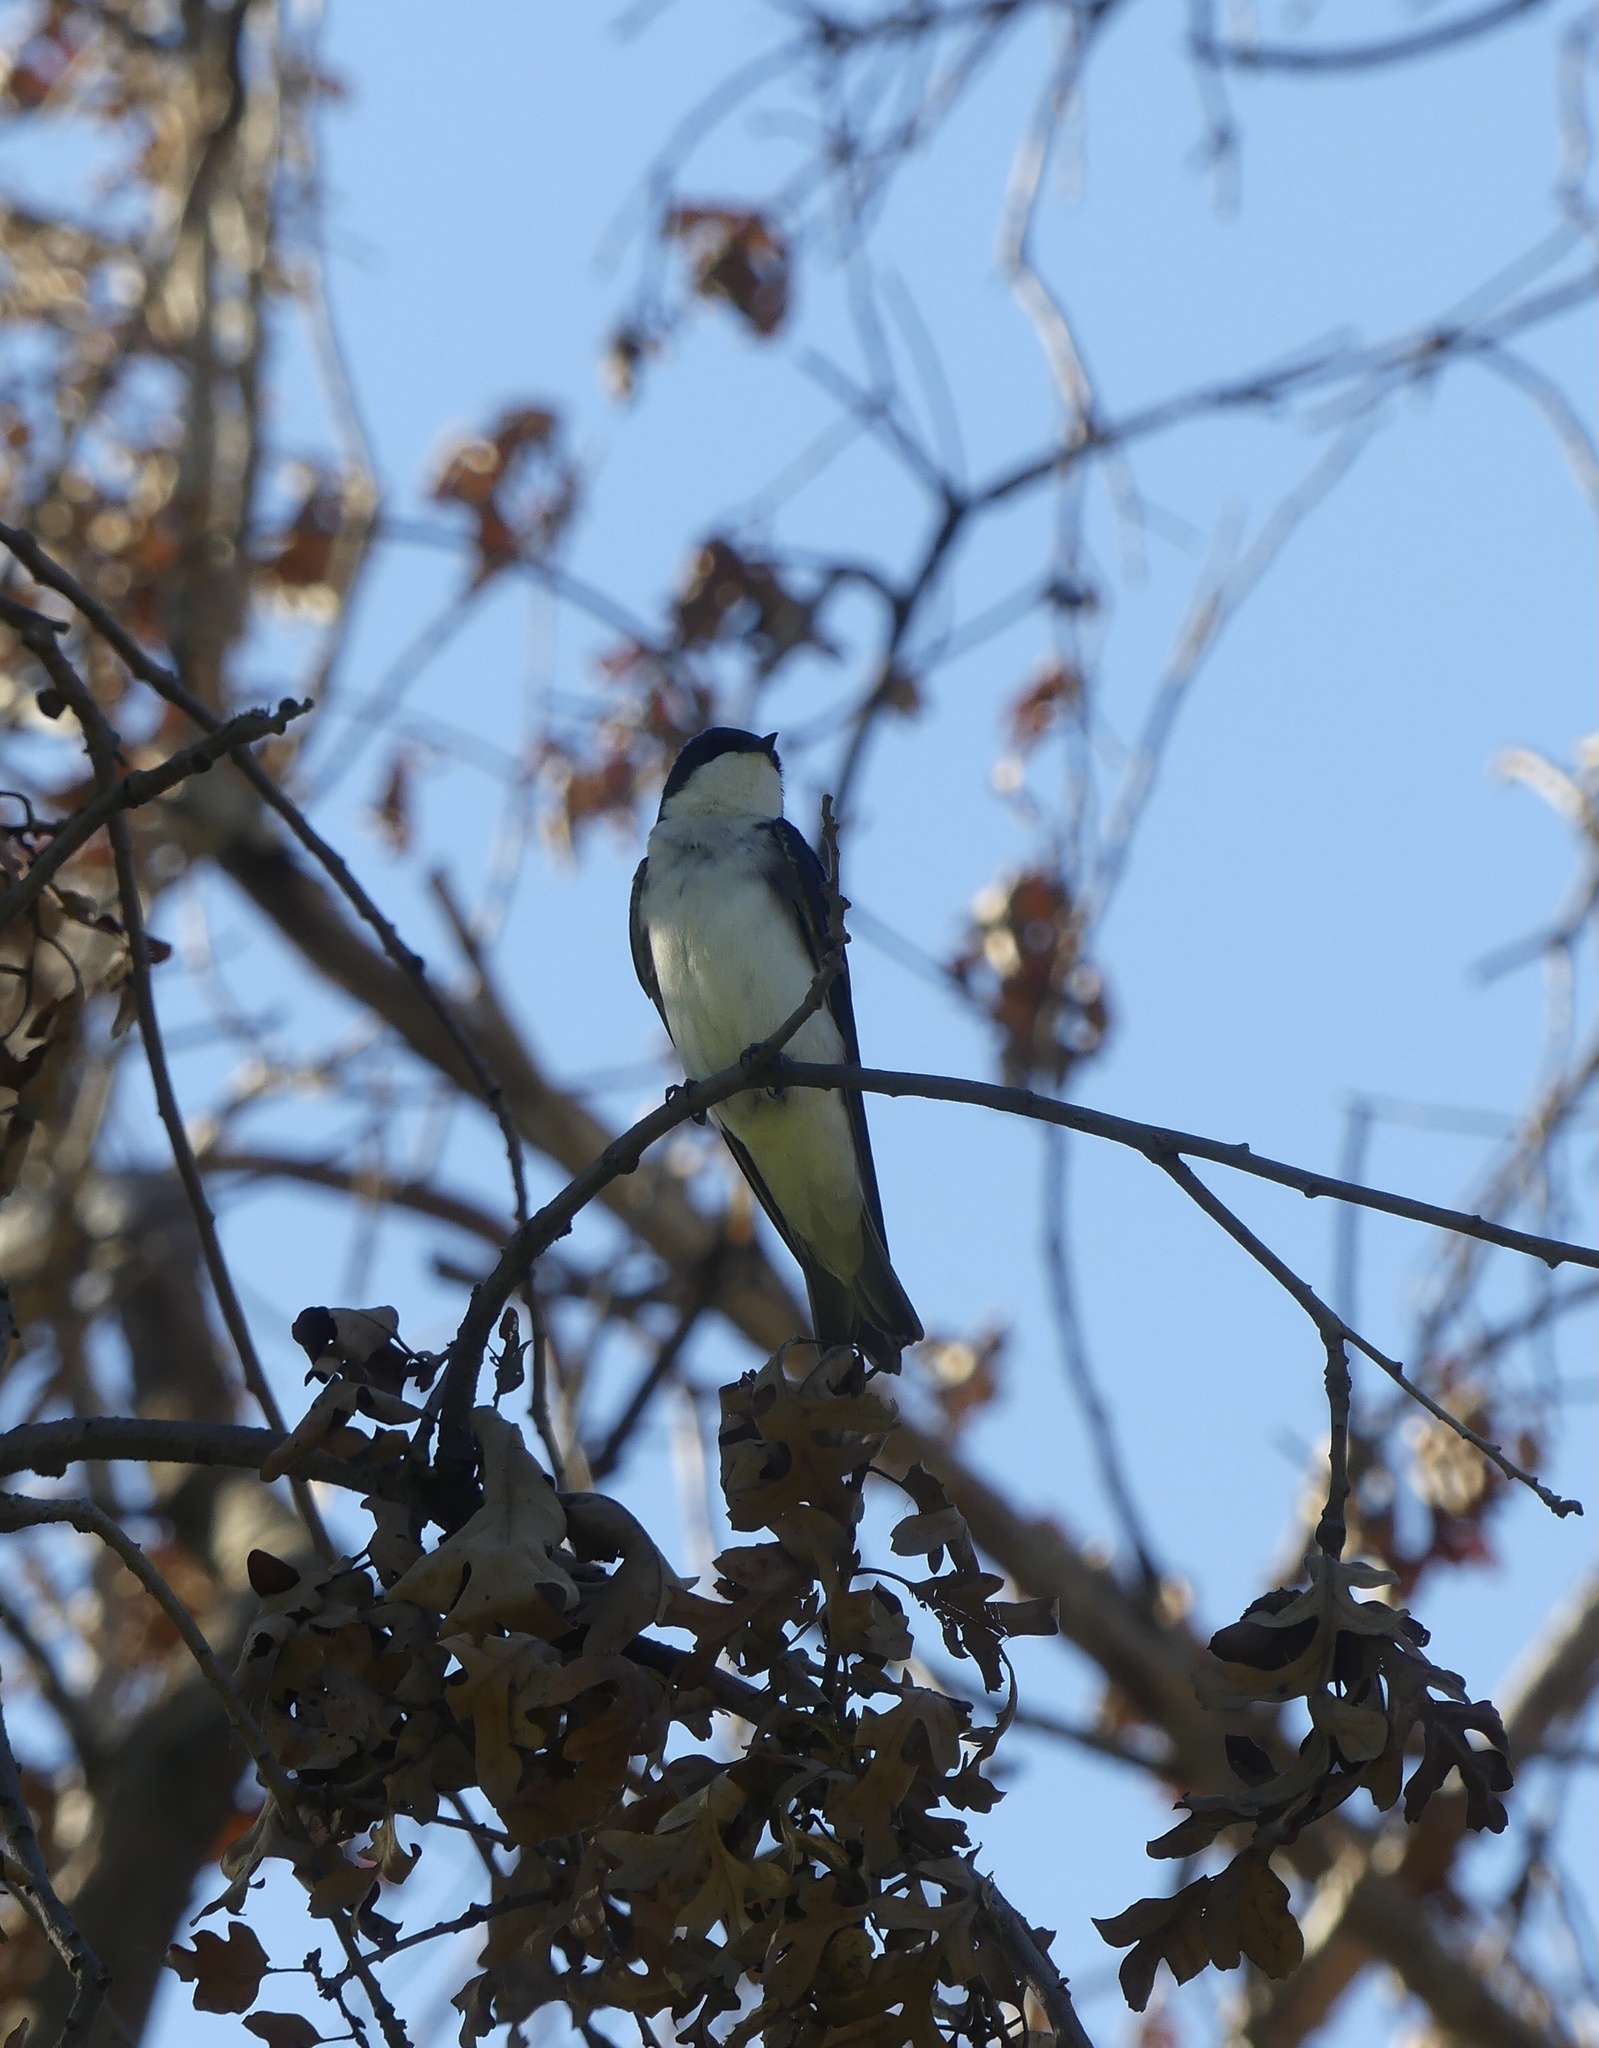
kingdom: Animalia
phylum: Chordata
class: Aves
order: Passeriformes
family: Hirundinidae
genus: Tachycineta
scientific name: Tachycineta bicolor
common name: Tree swallow
